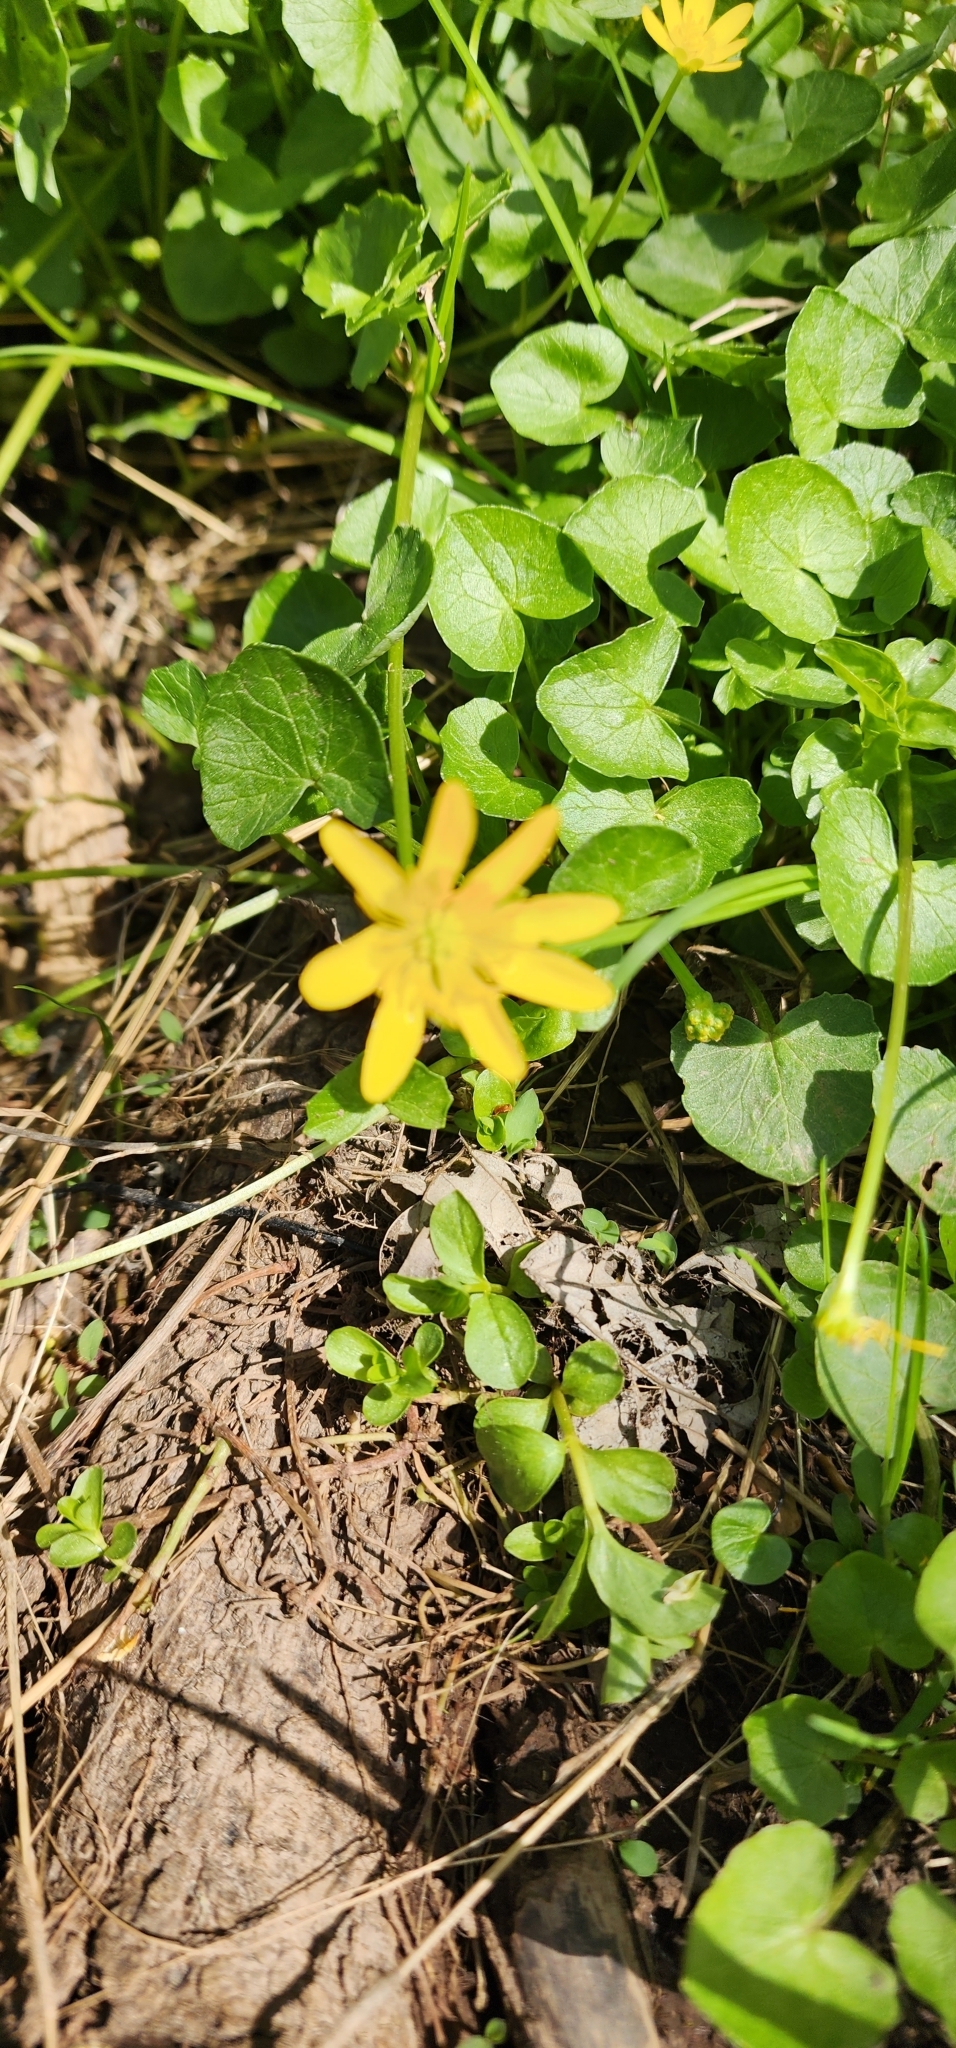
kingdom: Plantae
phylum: Tracheophyta
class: Magnoliopsida
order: Ranunculales
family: Ranunculaceae
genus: Ficaria
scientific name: Ficaria verna
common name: Lesser celandine
